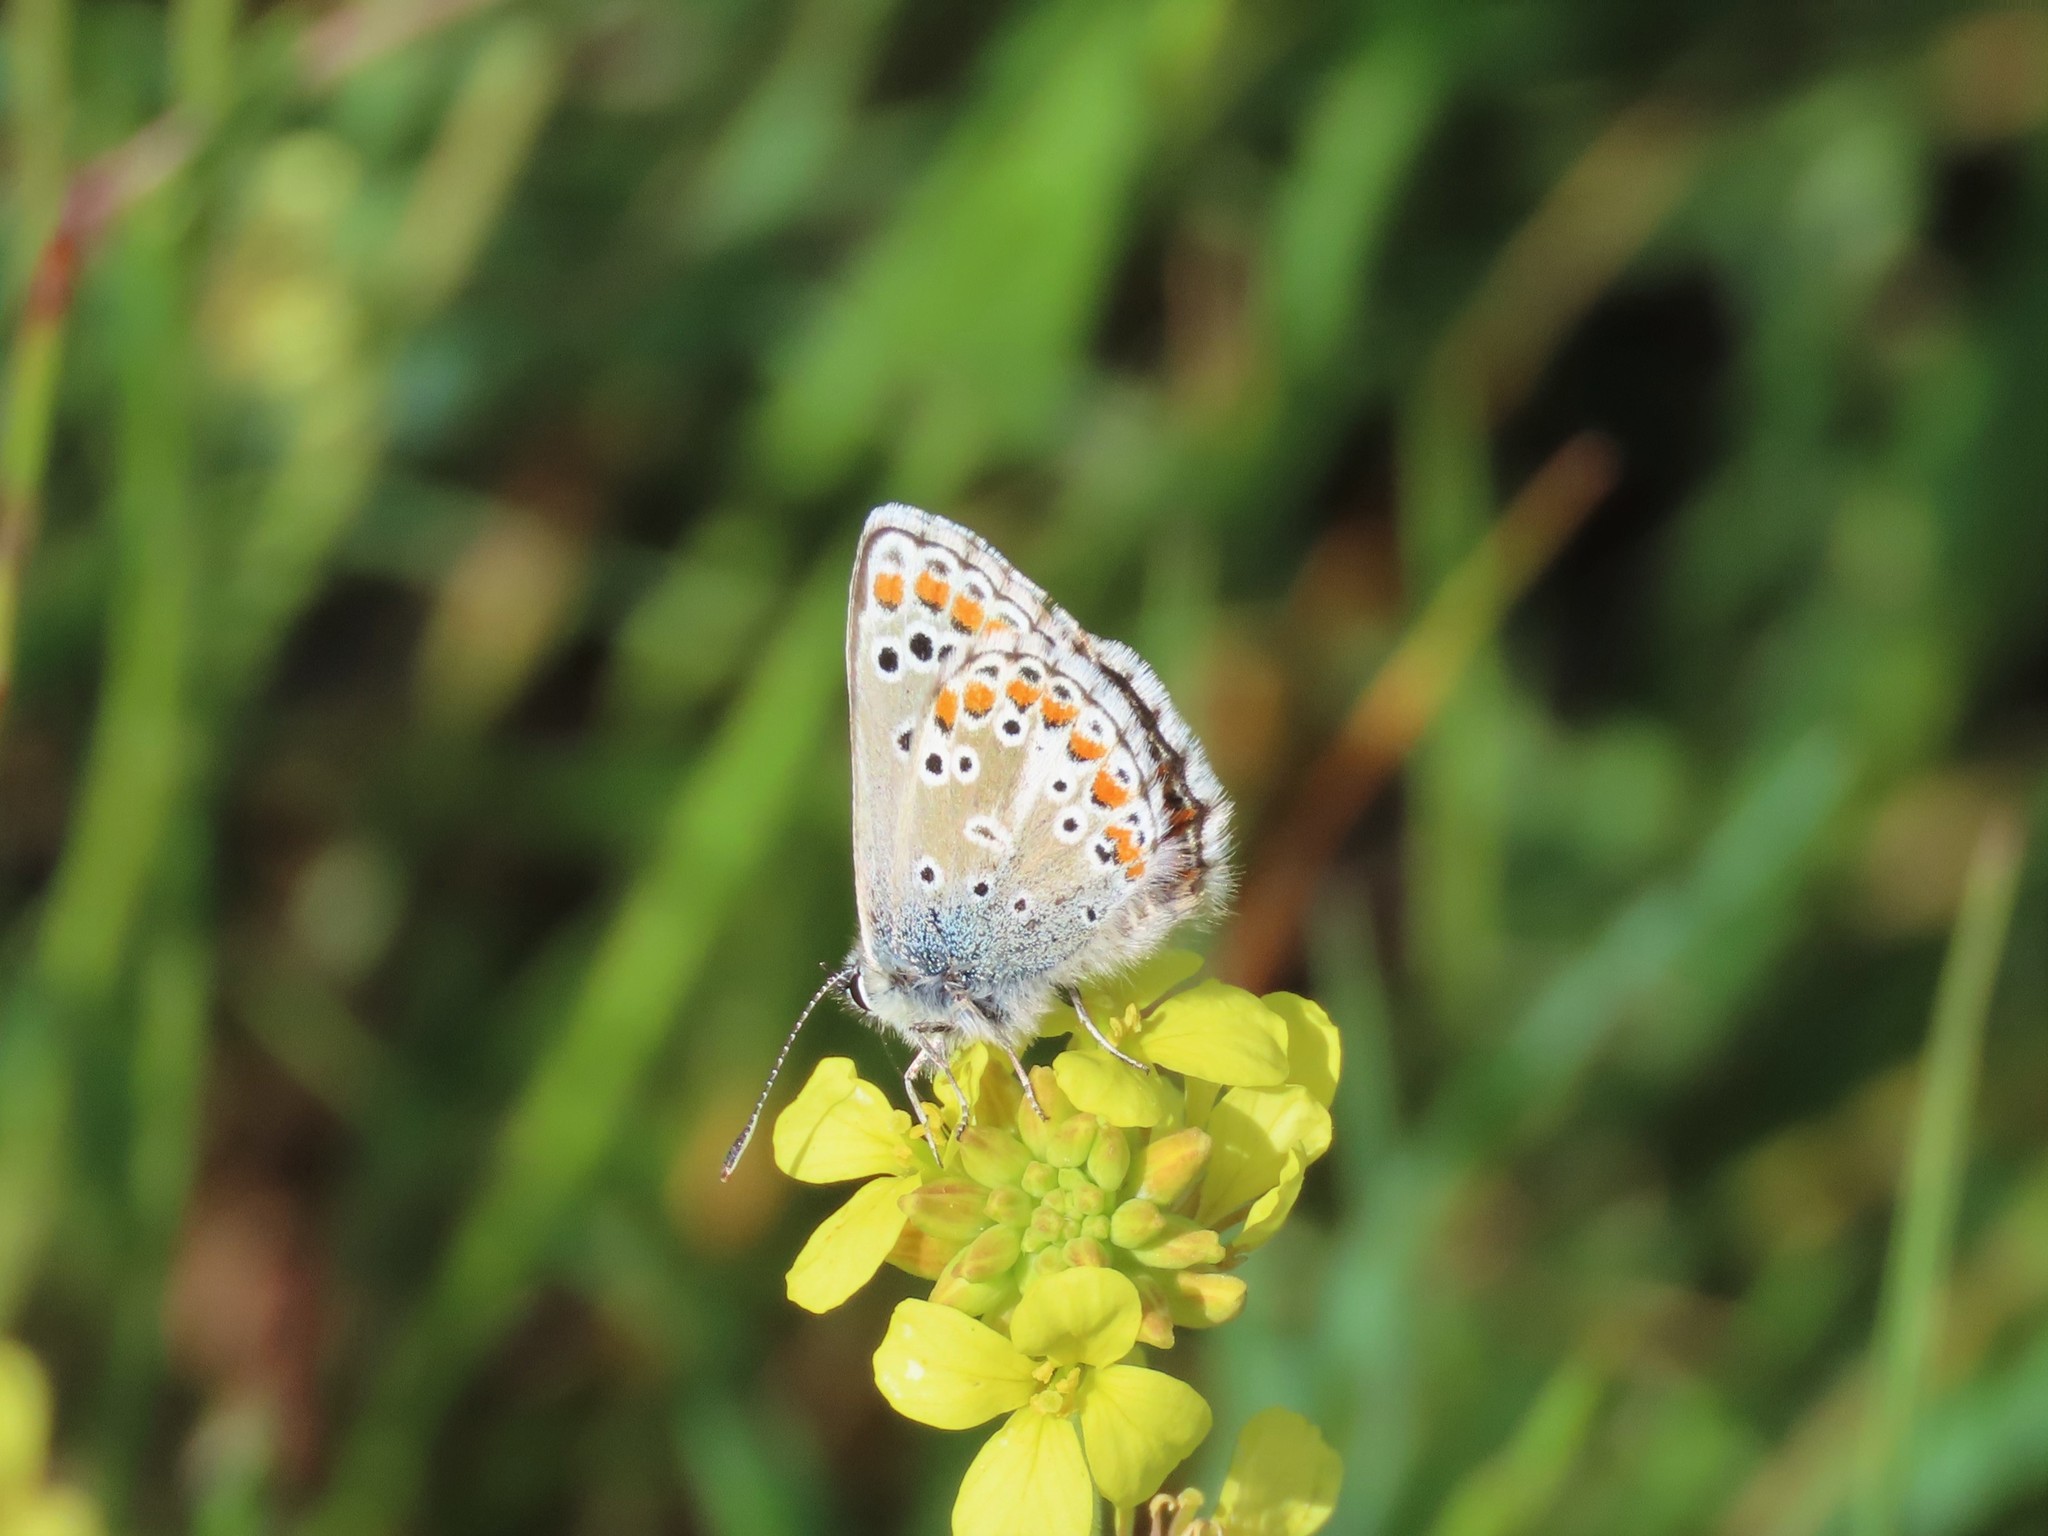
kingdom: Animalia
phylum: Arthropoda
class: Insecta
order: Lepidoptera
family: Lycaenidae
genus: Aricia
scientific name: Aricia cramera
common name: Eschscholtz´s brown  argus
